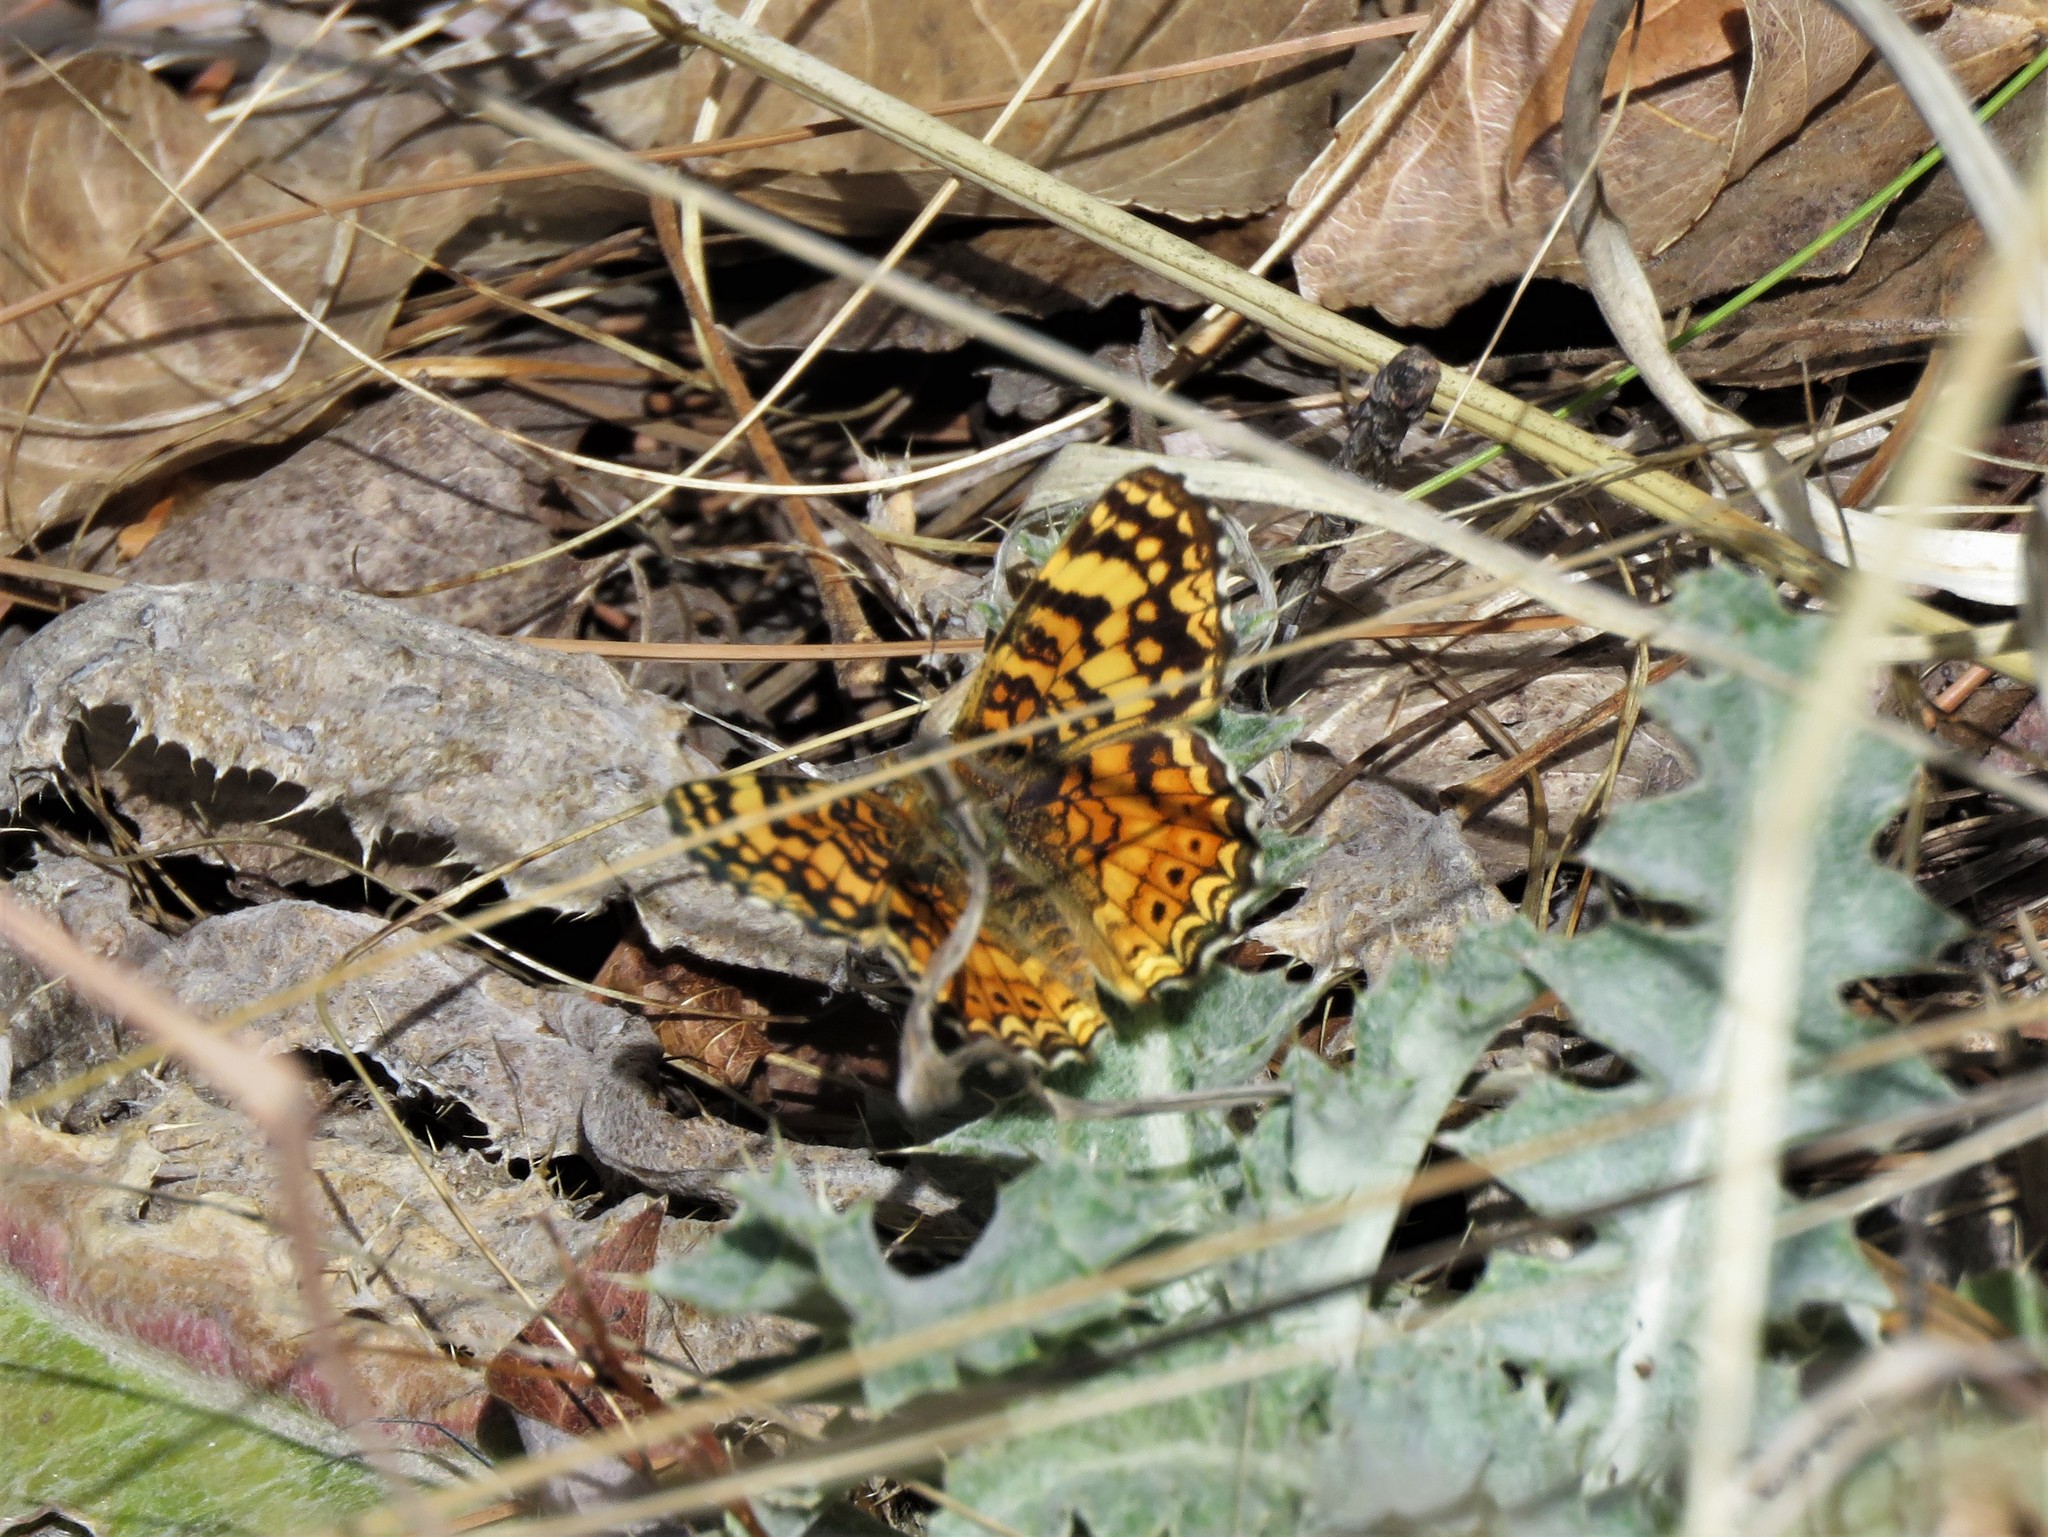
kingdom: Animalia
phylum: Arthropoda
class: Insecta
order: Lepidoptera
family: Nymphalidae
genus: Eresia
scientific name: Eresia aveyrona
